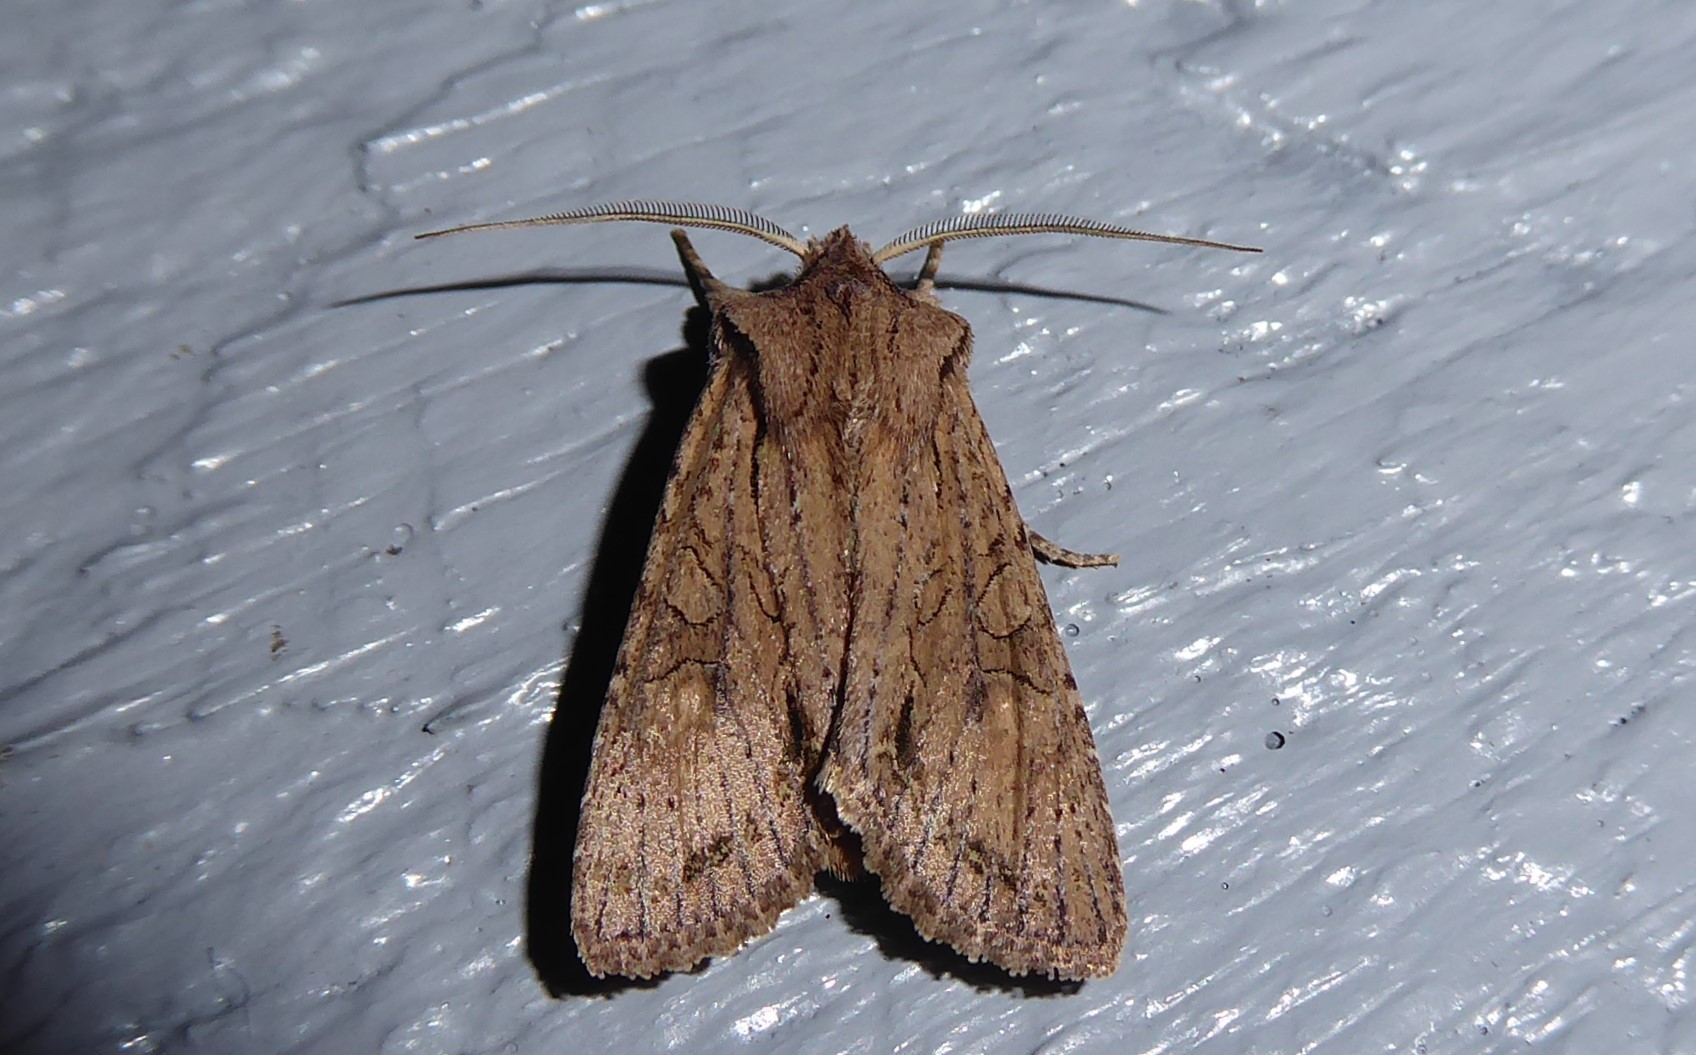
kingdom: Animalia
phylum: Arthropoda
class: Insecta
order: Lepidoptera
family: Noctuidae
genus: Ichneutica
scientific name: Ichneutica
